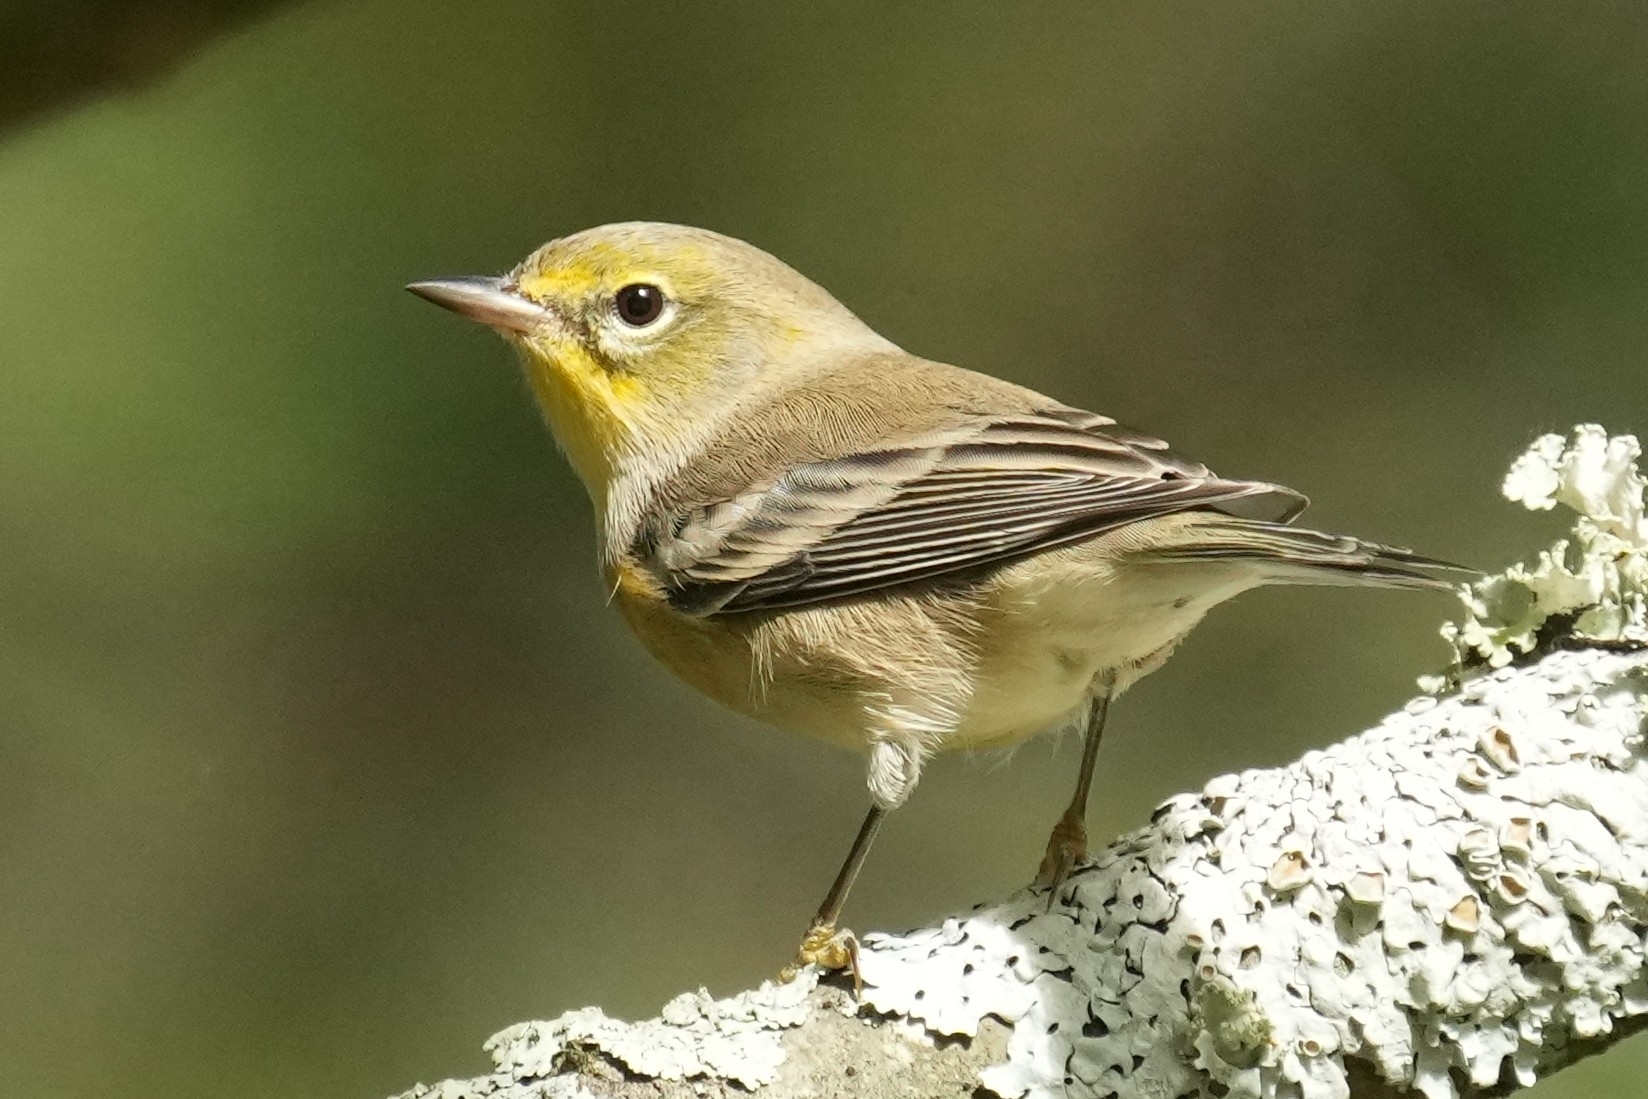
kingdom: Animalia
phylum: Chordata
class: Aves
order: Passeriformes
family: Parulidae
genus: Setophaga
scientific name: Setophaga pinus
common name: Pine warbler
